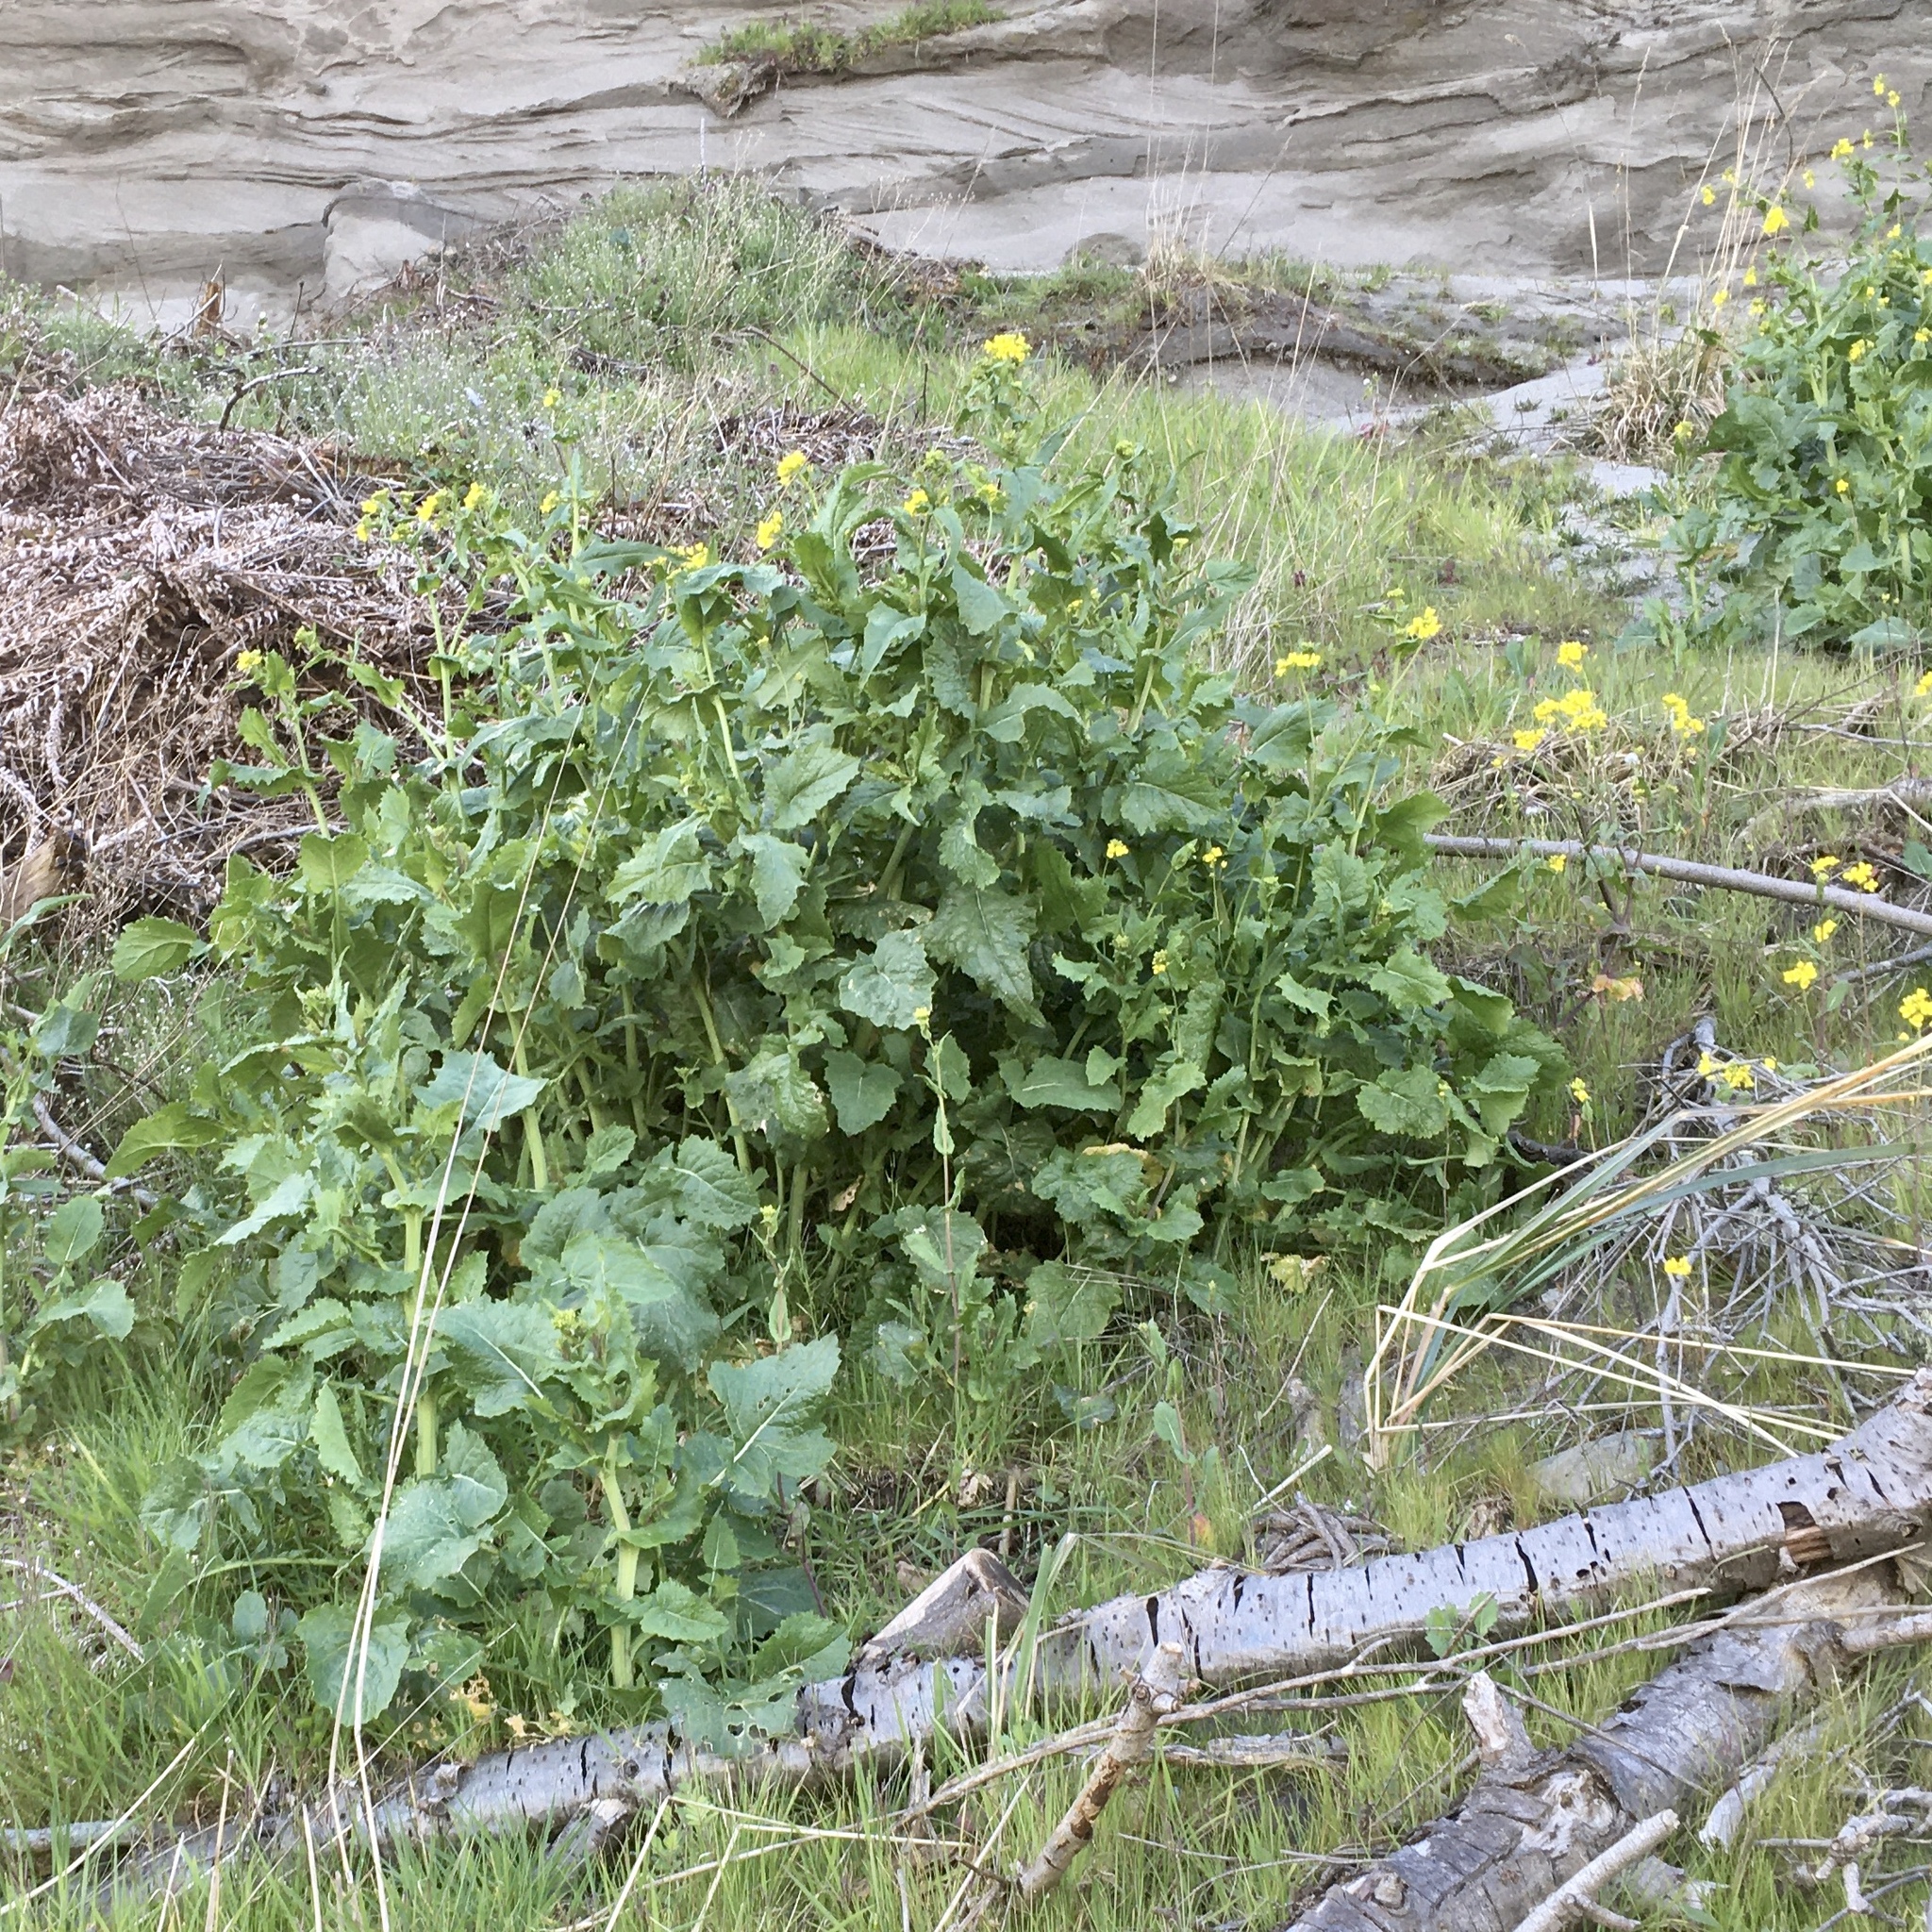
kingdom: Plantae
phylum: Tracheophyta
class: Magnoliopsida
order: Brassicales
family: Brassicaceae
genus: Brassica
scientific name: Brassica rapa
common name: Field mustard
